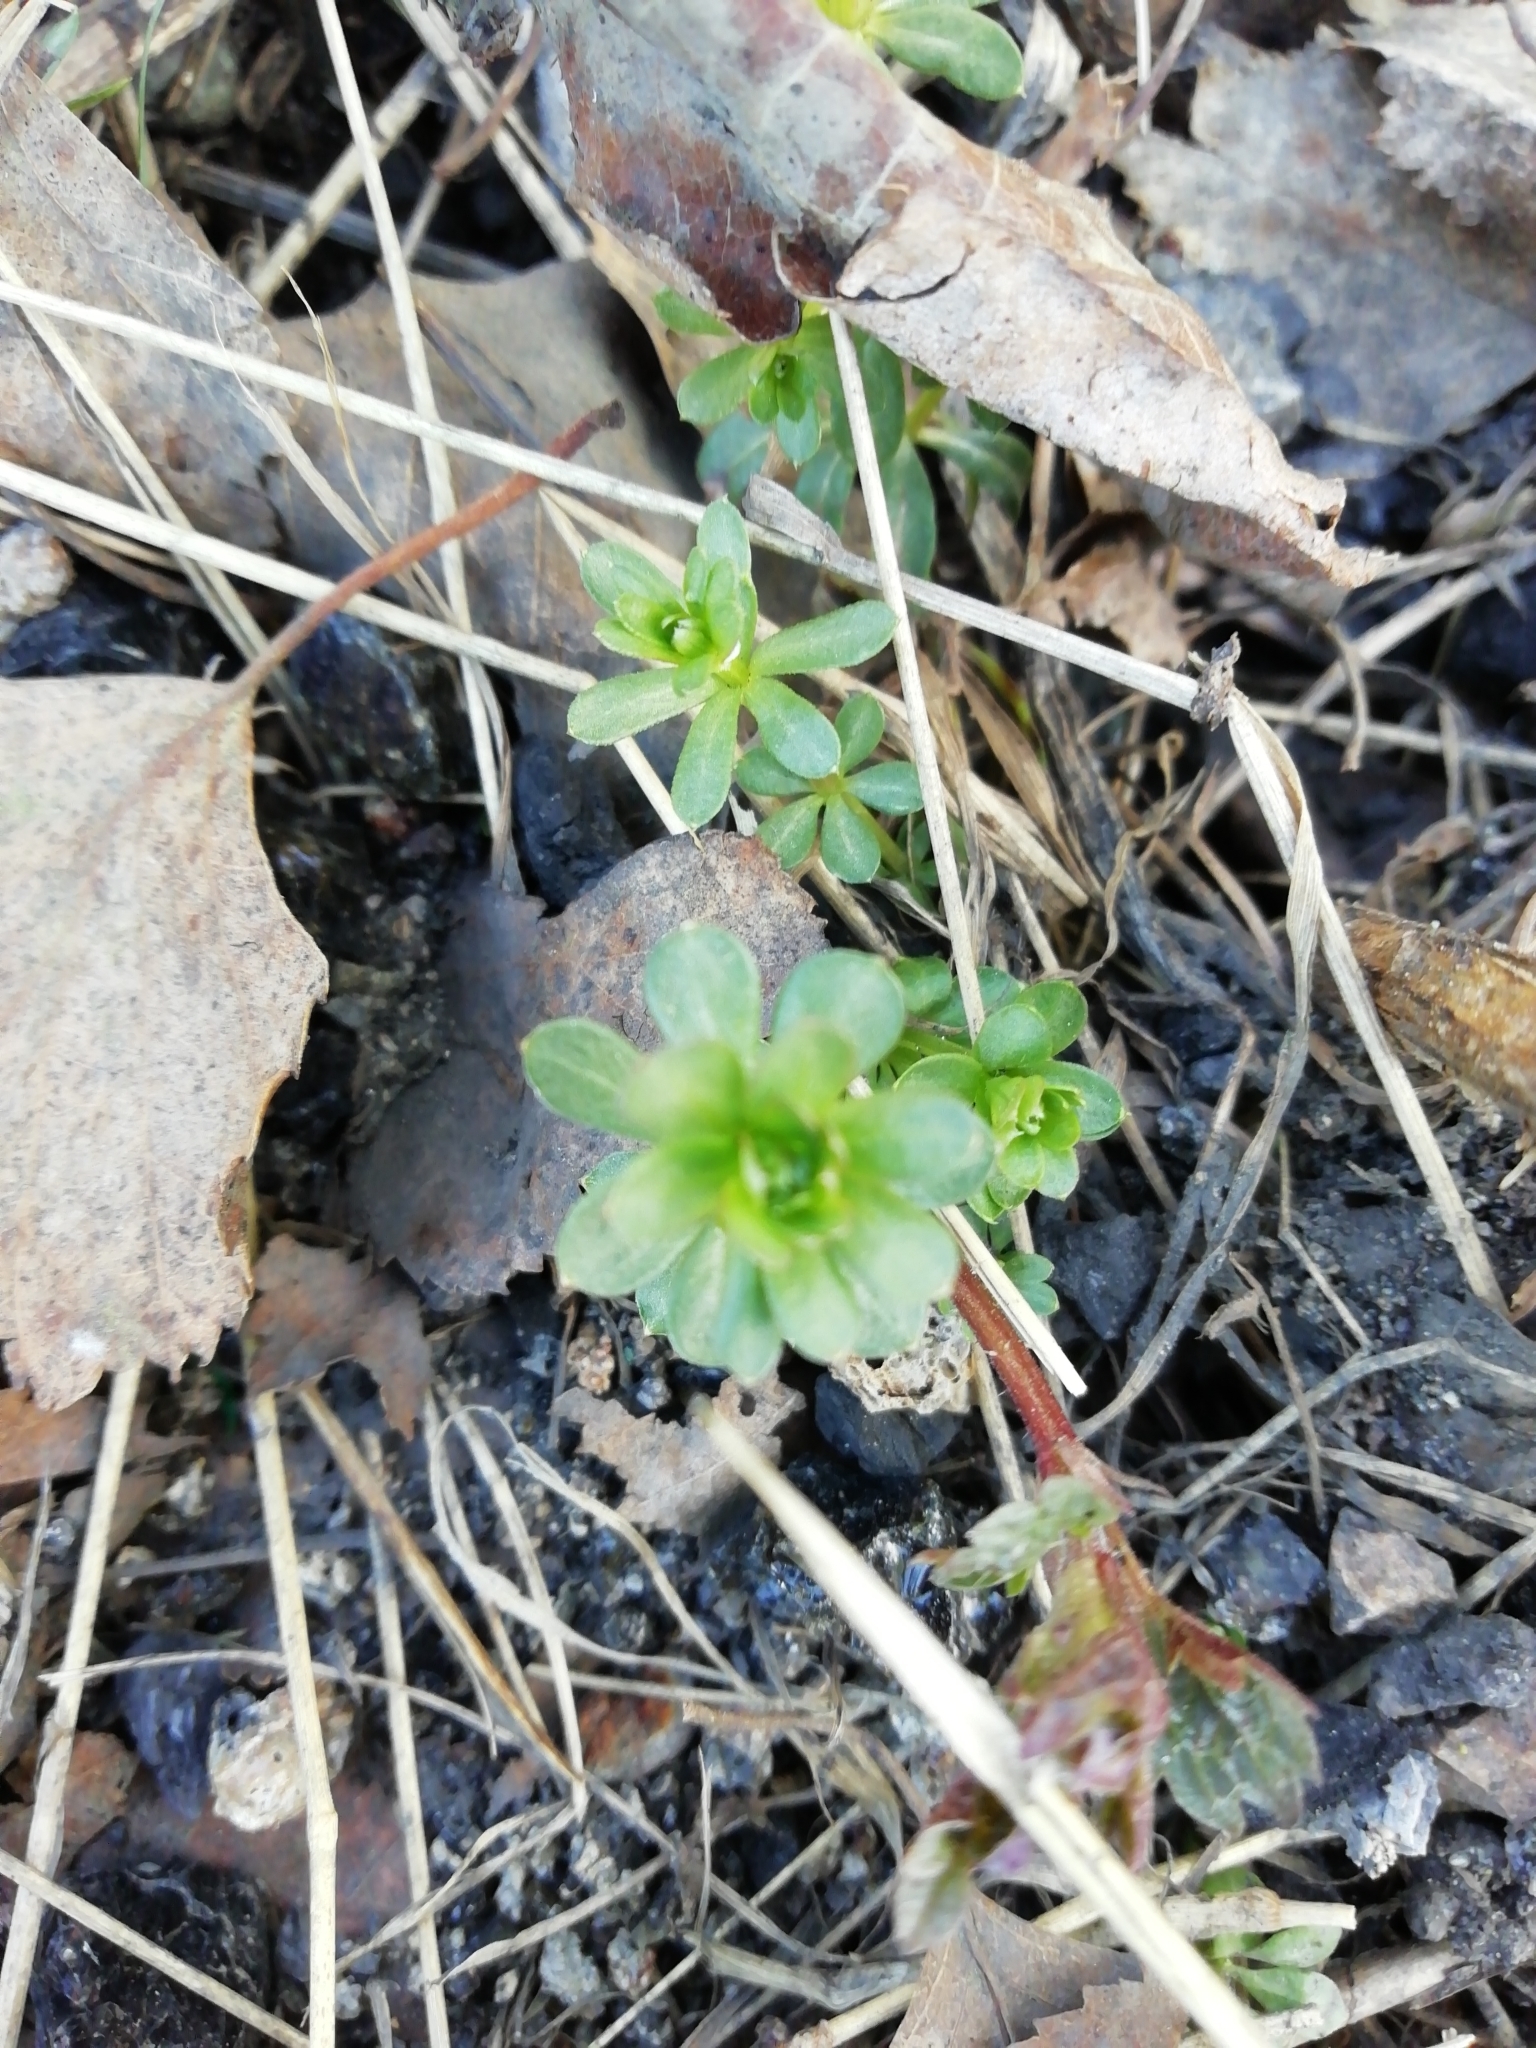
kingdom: Plantae
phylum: Tracheophyta
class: Magnoliopsida
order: Gentianales
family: Rubiaceae
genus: Galium
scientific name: Galium mollugo
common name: Hedge bedstraw
